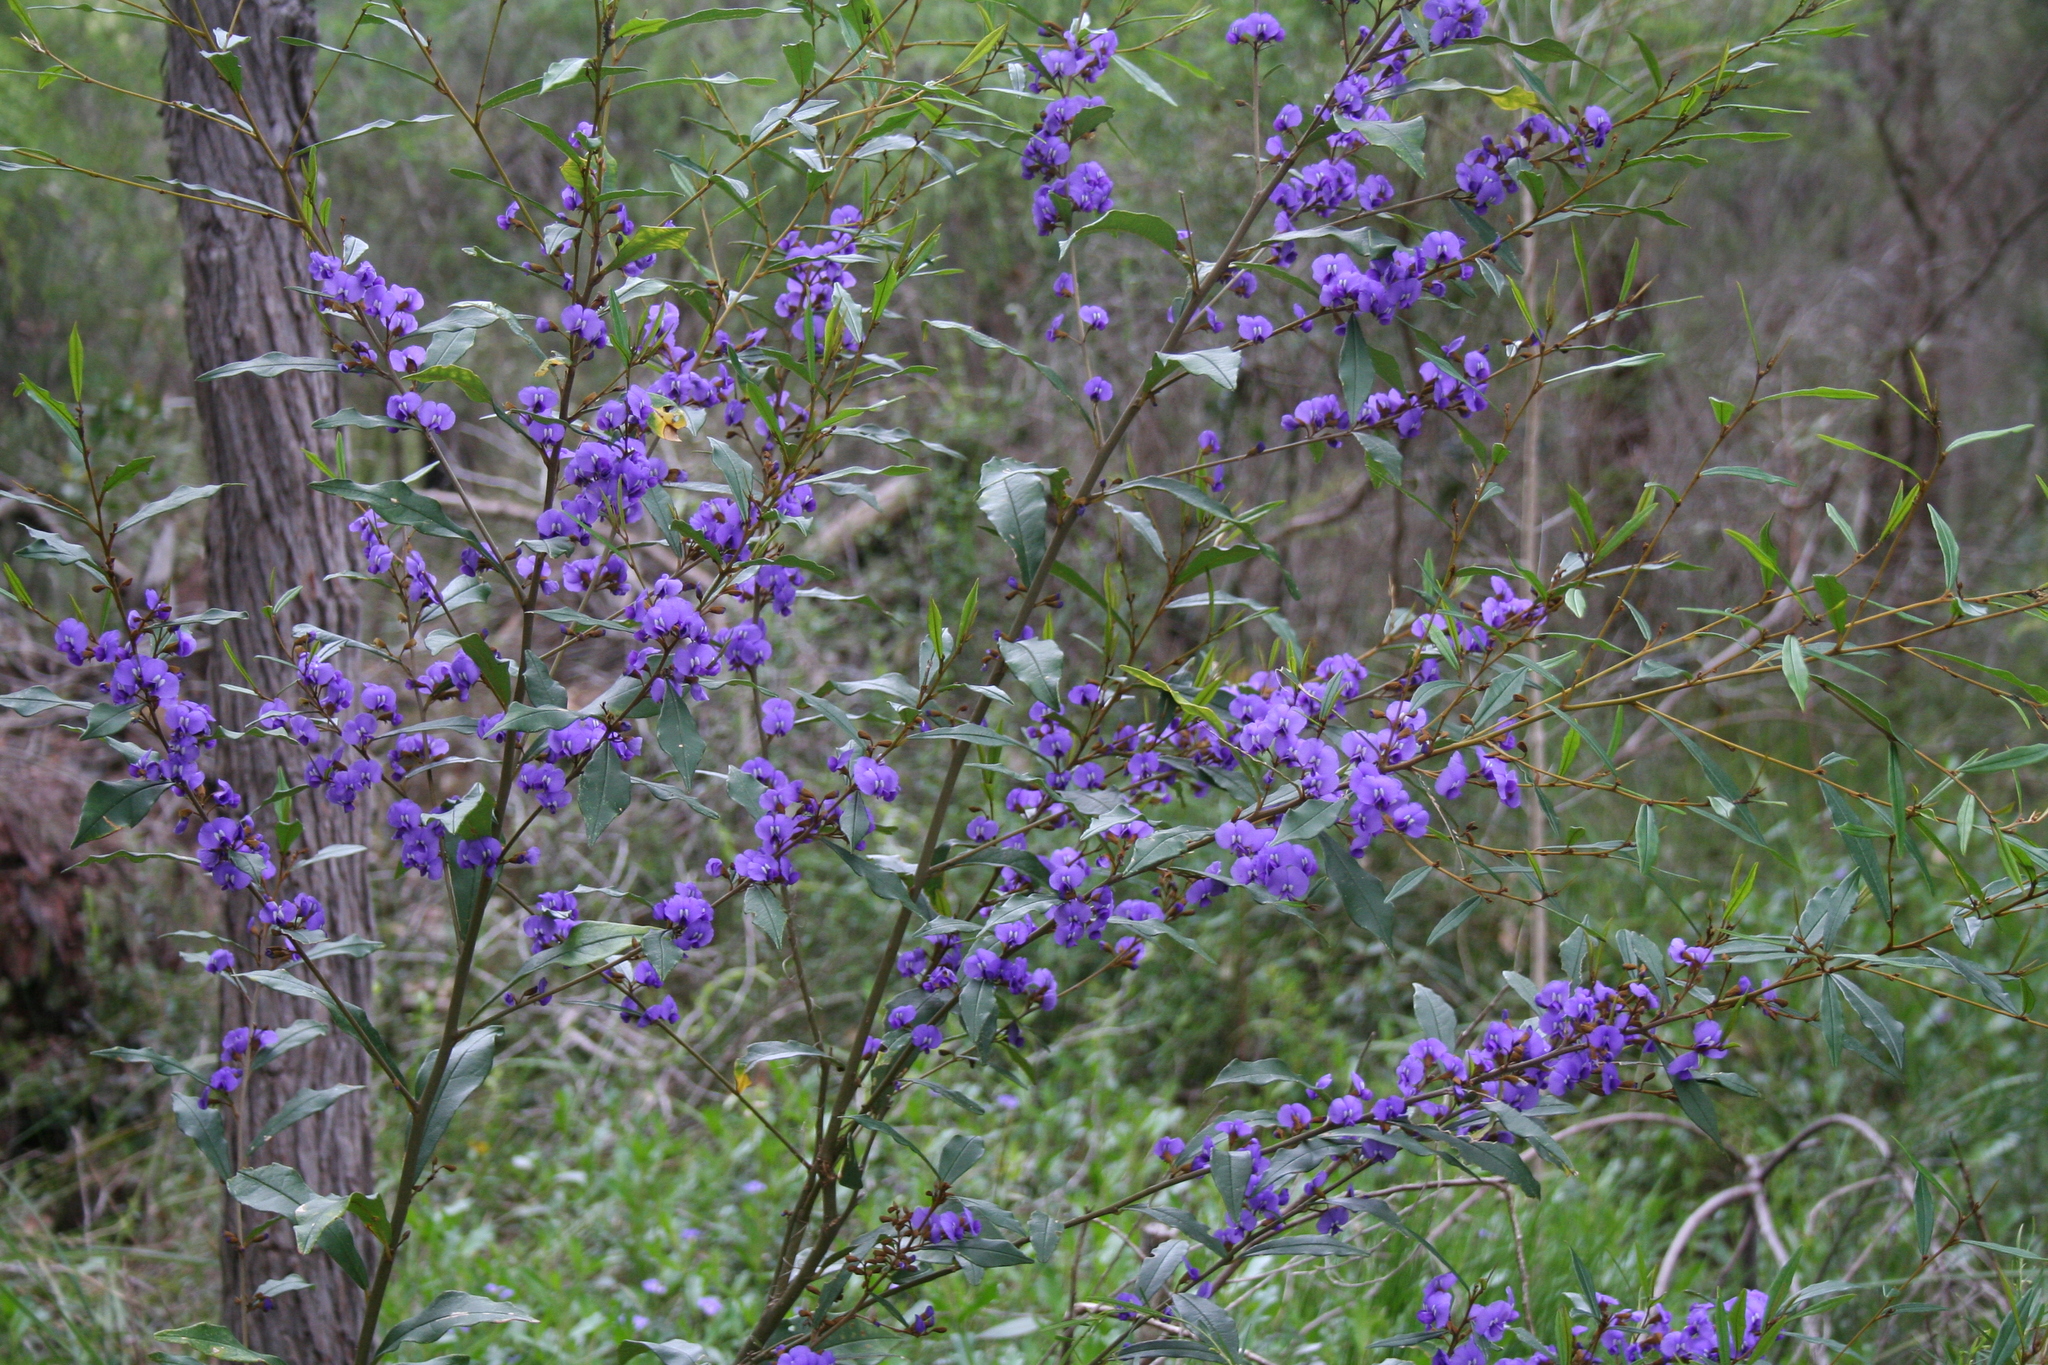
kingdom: Plantae
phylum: Tracheophyta
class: Magnoliopsida
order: Fabales
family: Fabaceae
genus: Hovea
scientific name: Hovea elliptica
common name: Tree hovea
